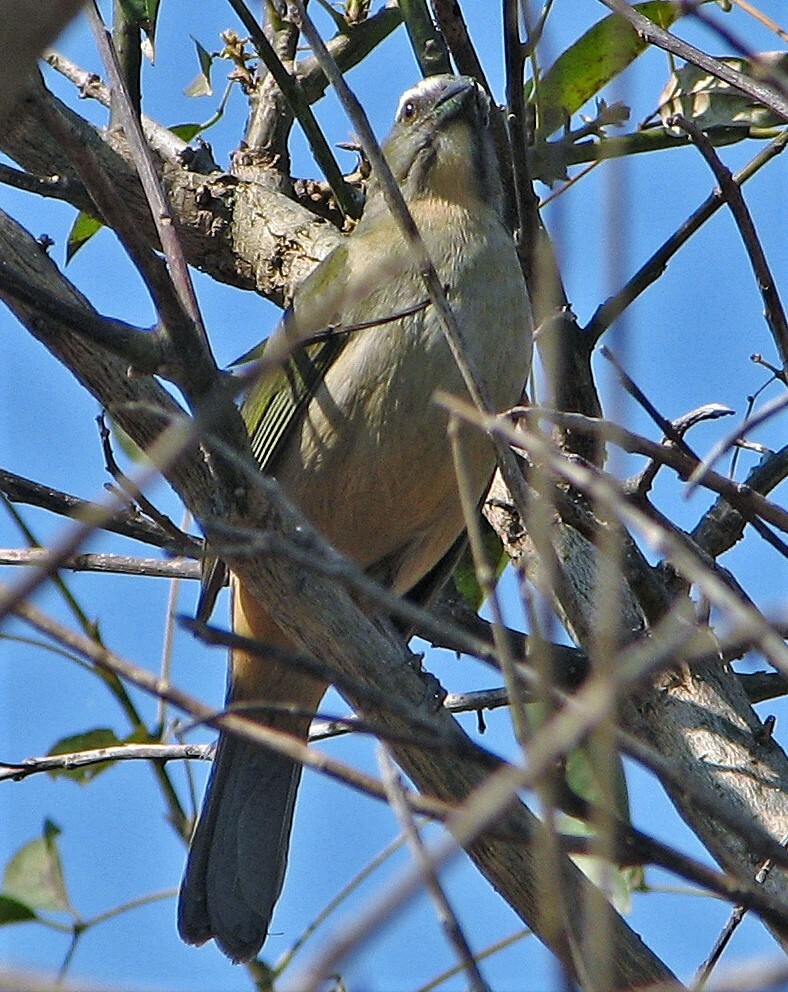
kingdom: Animalia
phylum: Chordata
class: Aves
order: Passeriformes
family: Thraupidae
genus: Saltator
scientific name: Saltator similis
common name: Green-winged saltator
